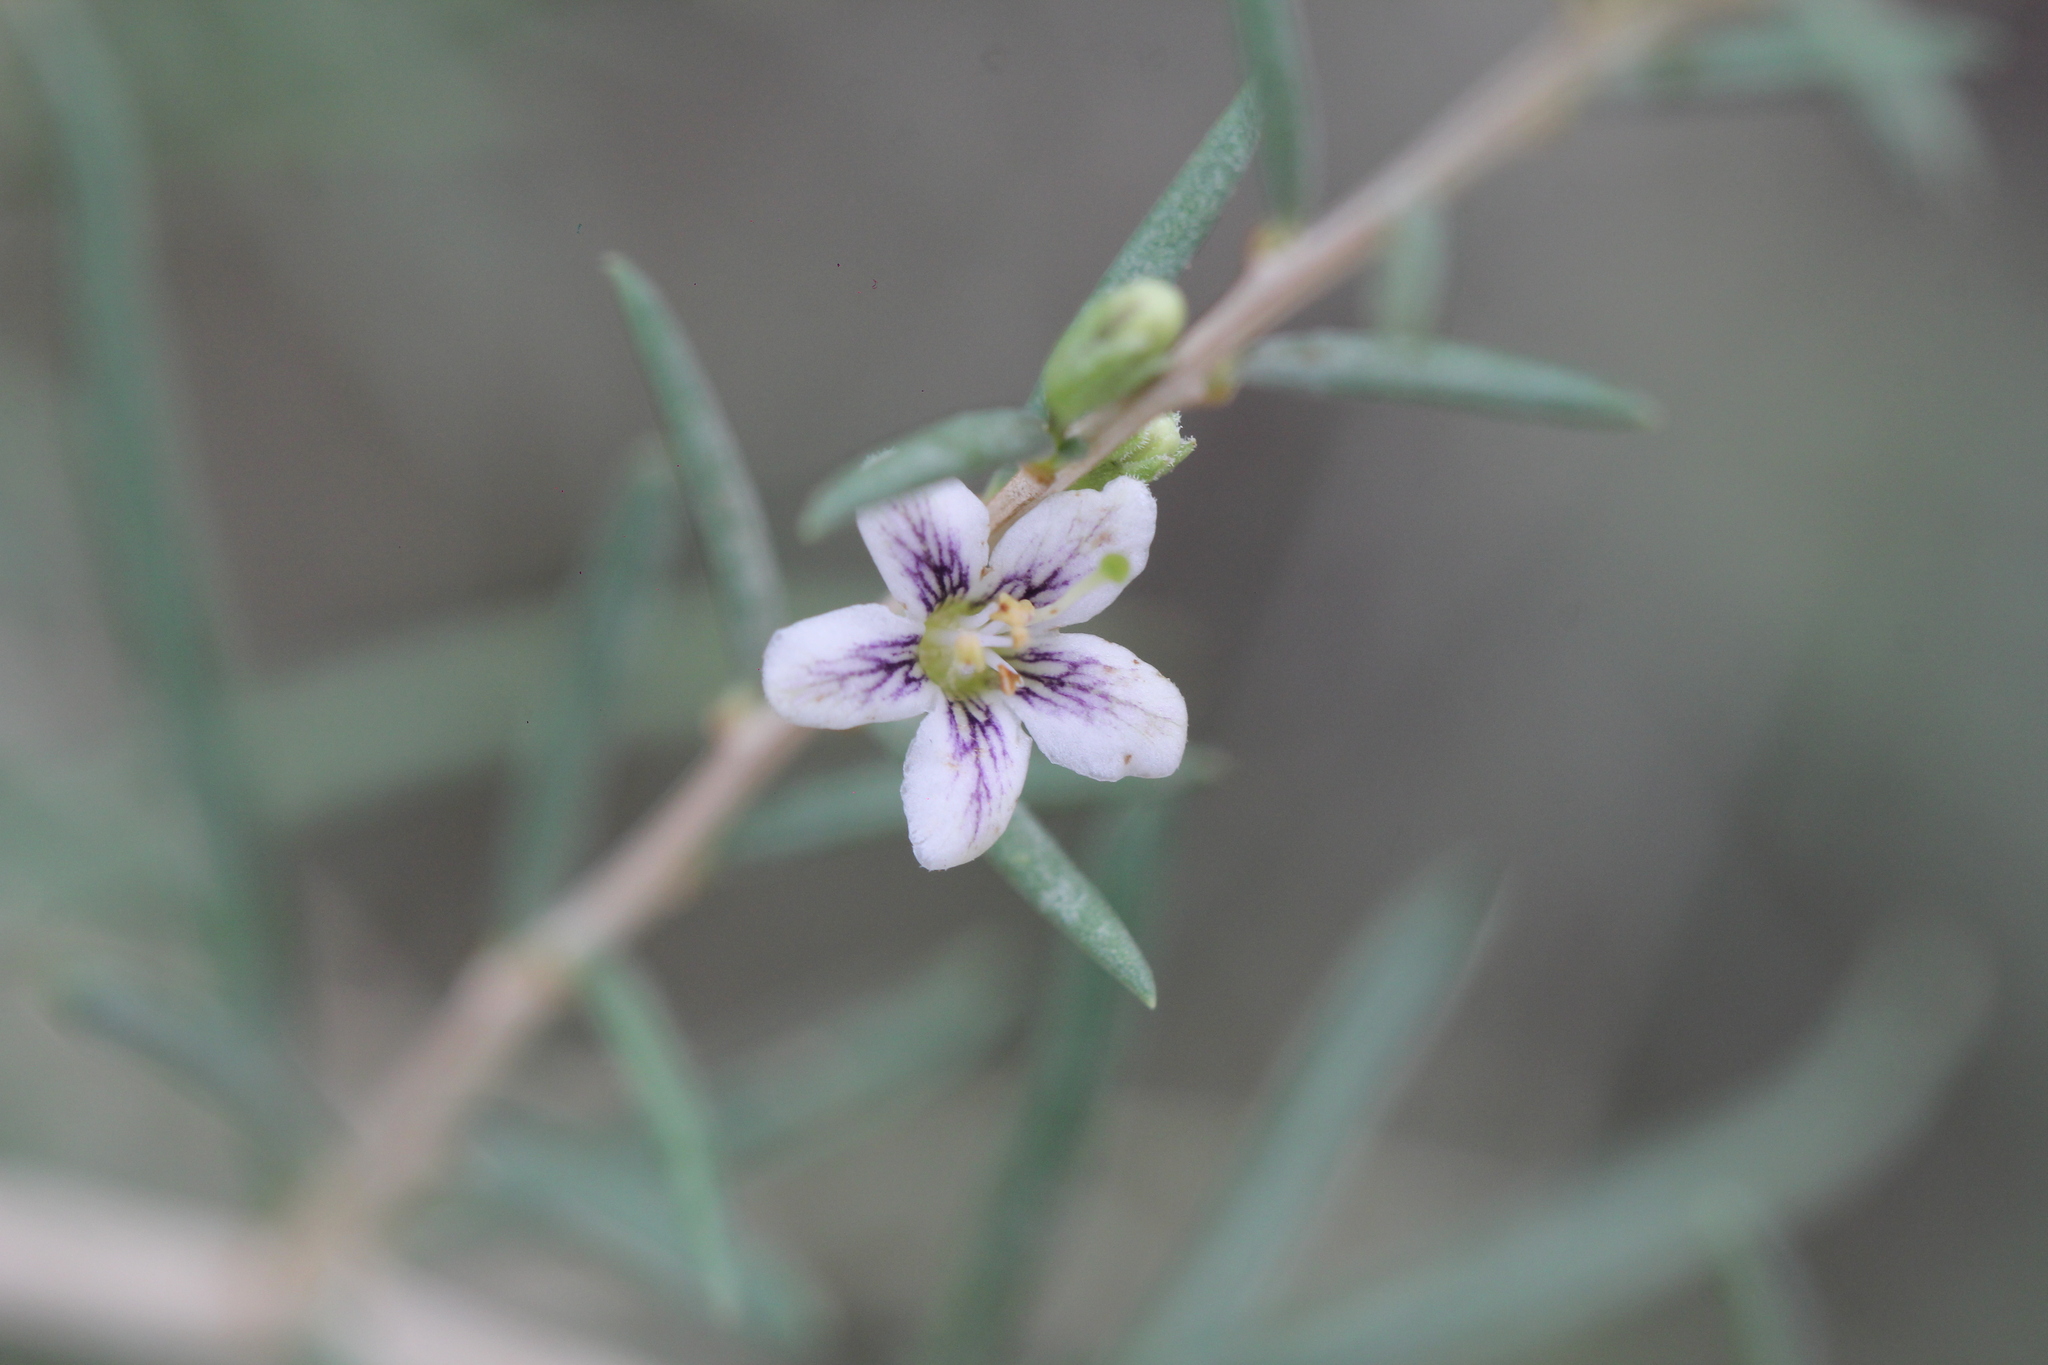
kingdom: Plantae
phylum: Tracheophyta
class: Magnoliopsida
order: Solanales
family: Solanaceae
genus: Lycium
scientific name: Lycium chilense
